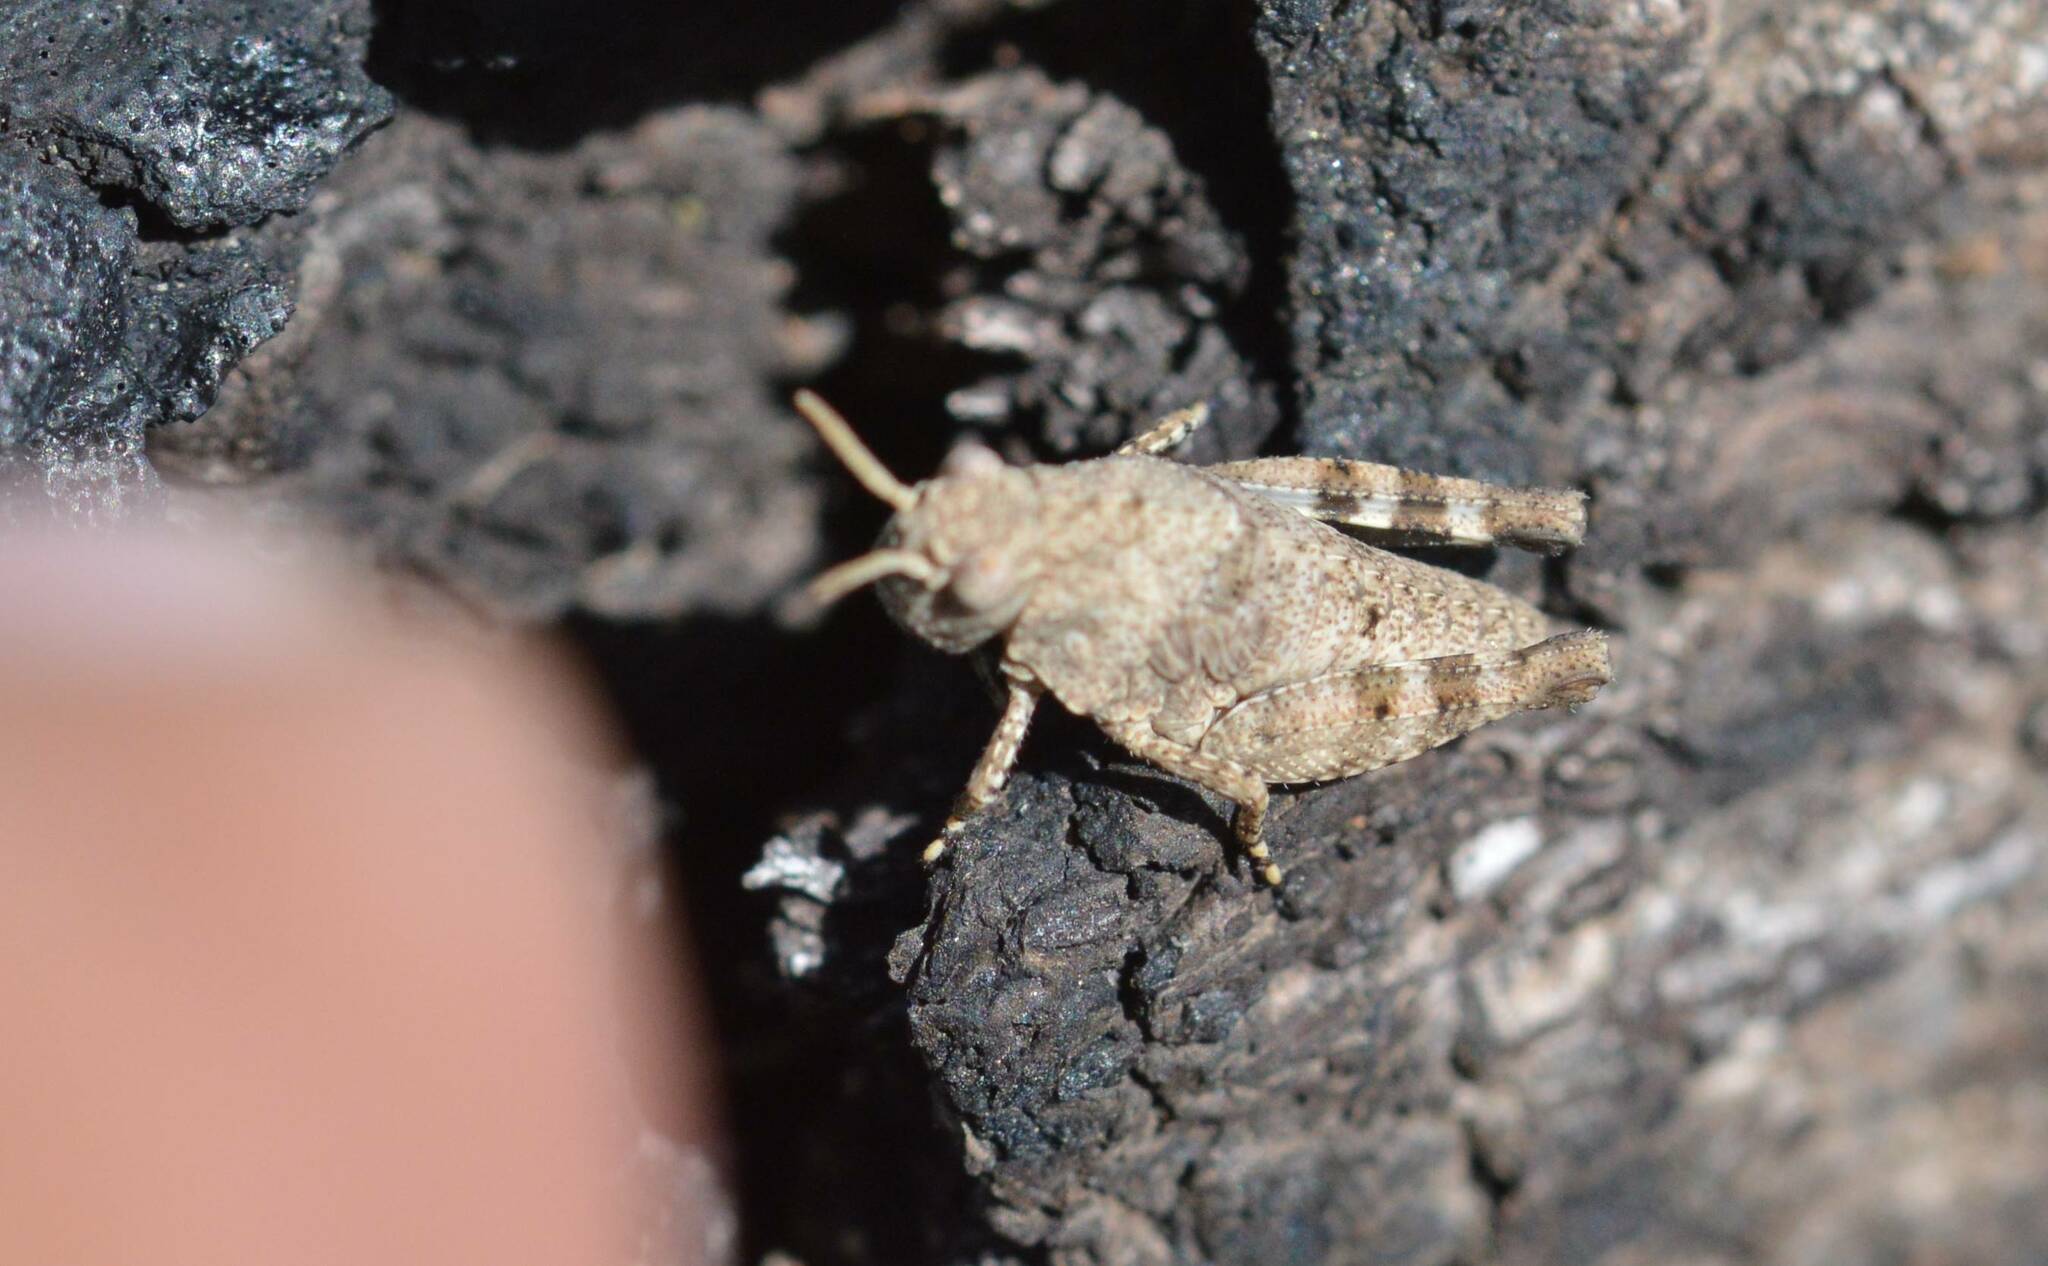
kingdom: Animalia
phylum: Arthropoda
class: Insecta
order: Orthoptera
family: Acrididae
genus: Oedipoda
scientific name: Oedipoda caerulescens
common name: Blue-winged grasshopper
